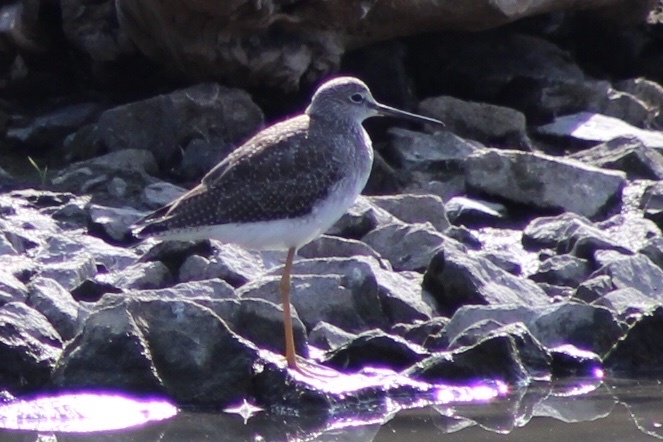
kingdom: Animalia
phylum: Chordata
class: Aves
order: Charadriiformes
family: Scolopacidae
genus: Tringa
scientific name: Tringa melanoleuca
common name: Greater yellowlegs
